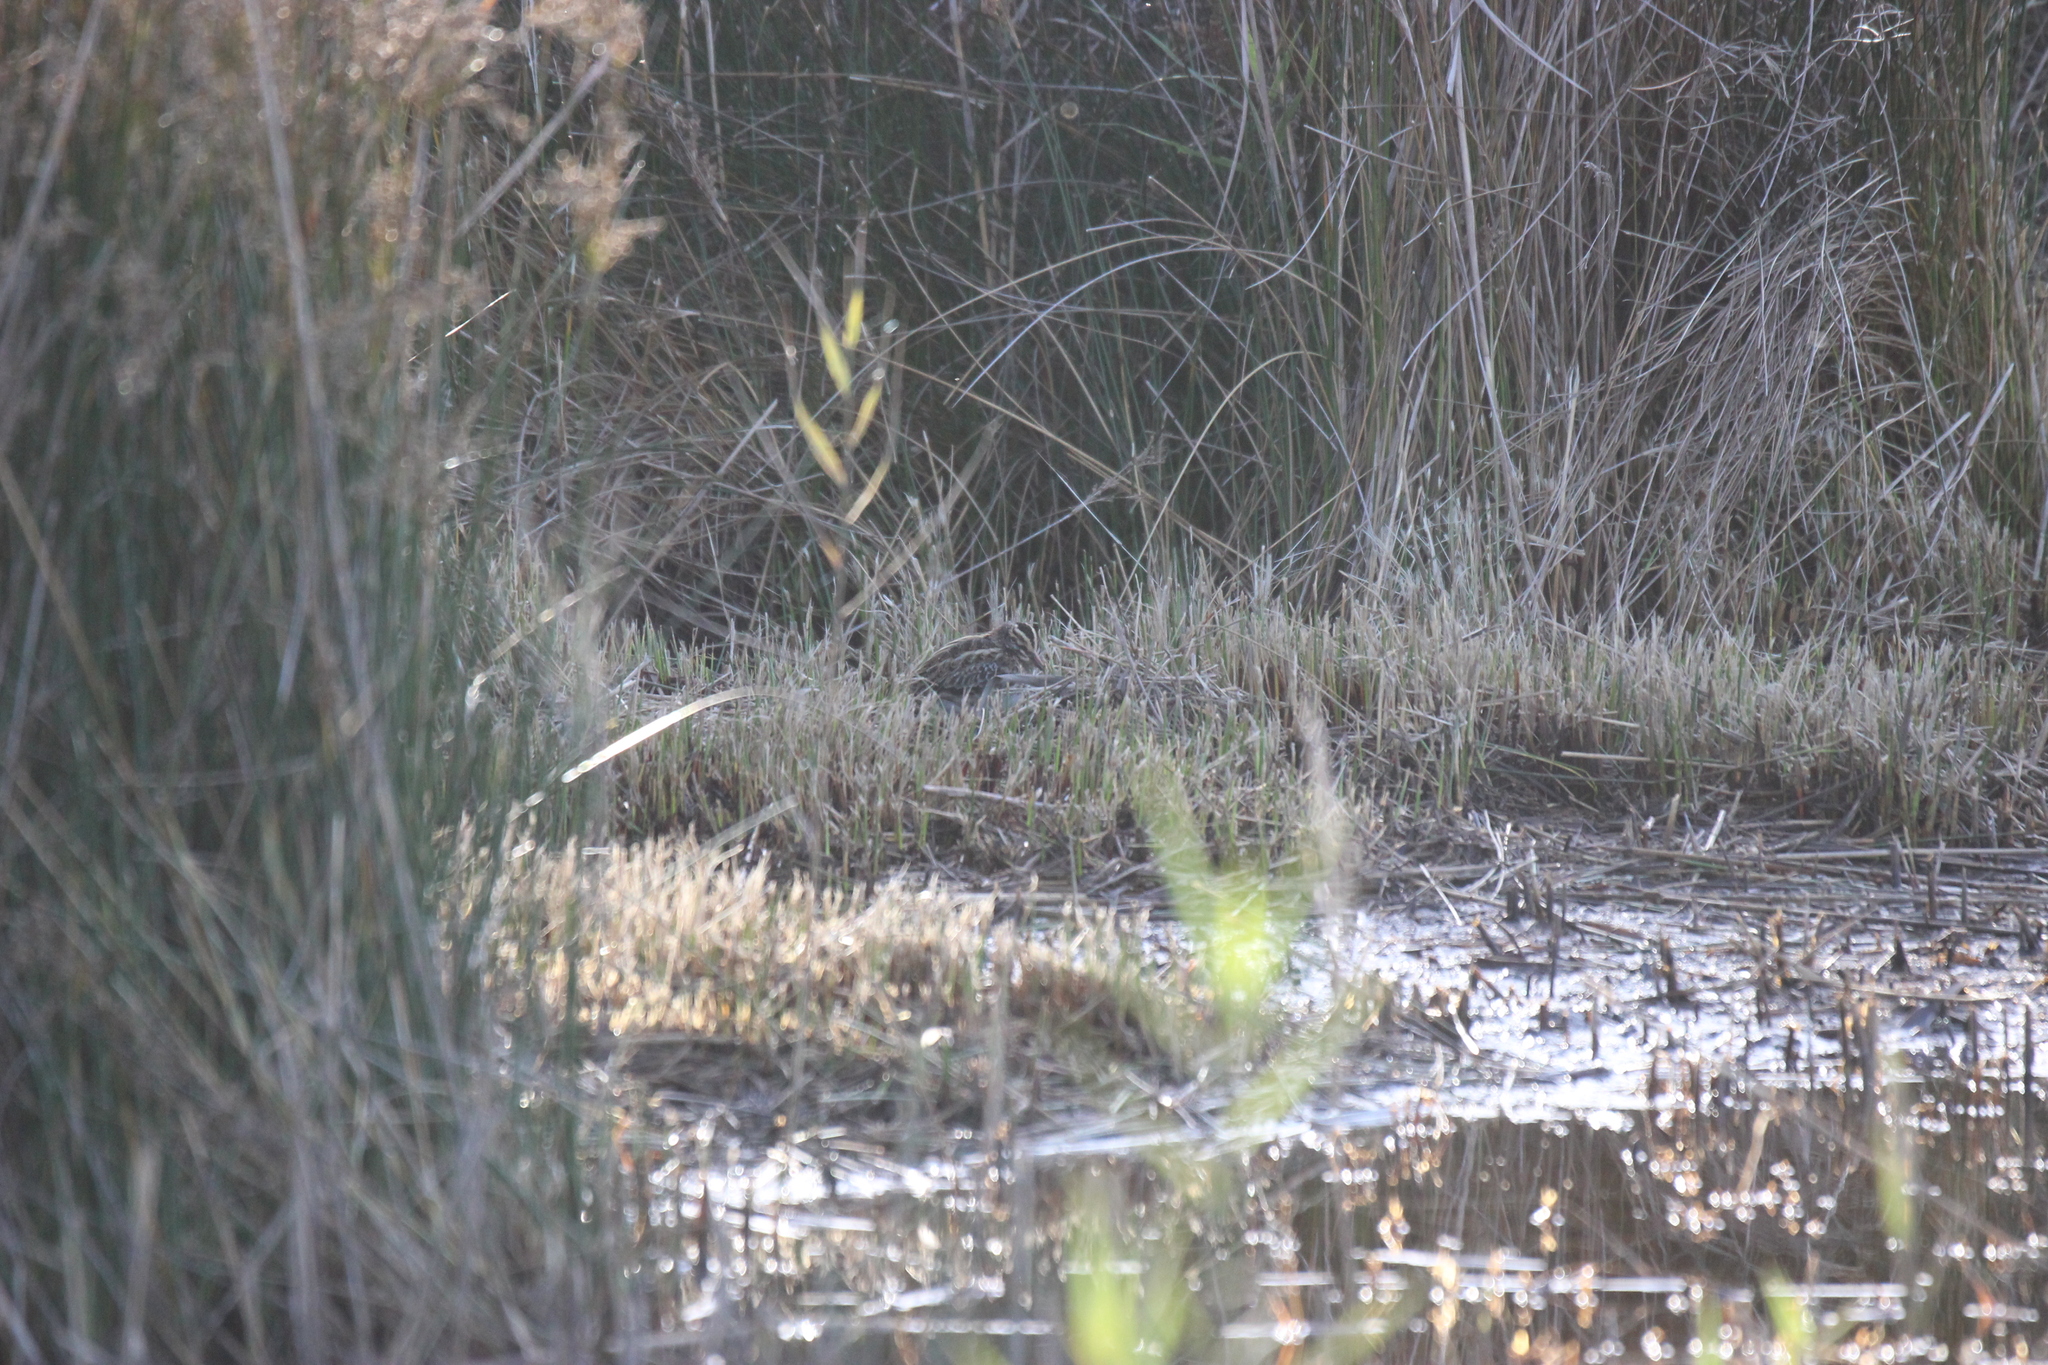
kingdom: Animalia
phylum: Chordata
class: Aves
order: Charadriiformes
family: Scolopacidae
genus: Lymnocryptes
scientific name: Lymnocryptes minimus
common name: Jack snipe
